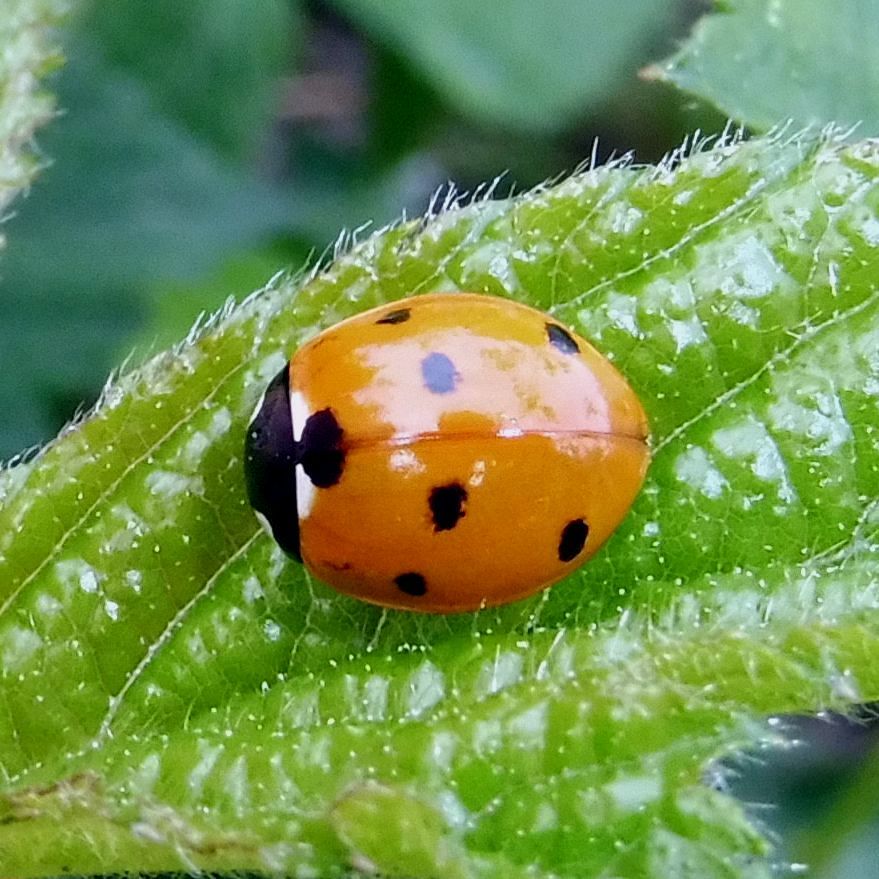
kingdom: Animalia
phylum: Arthropoda
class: Insecta
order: Coleoptera
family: Coccinellidae
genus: Coccinella
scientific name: Coccinella septempunctata
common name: Sevenspotted lady beetle
